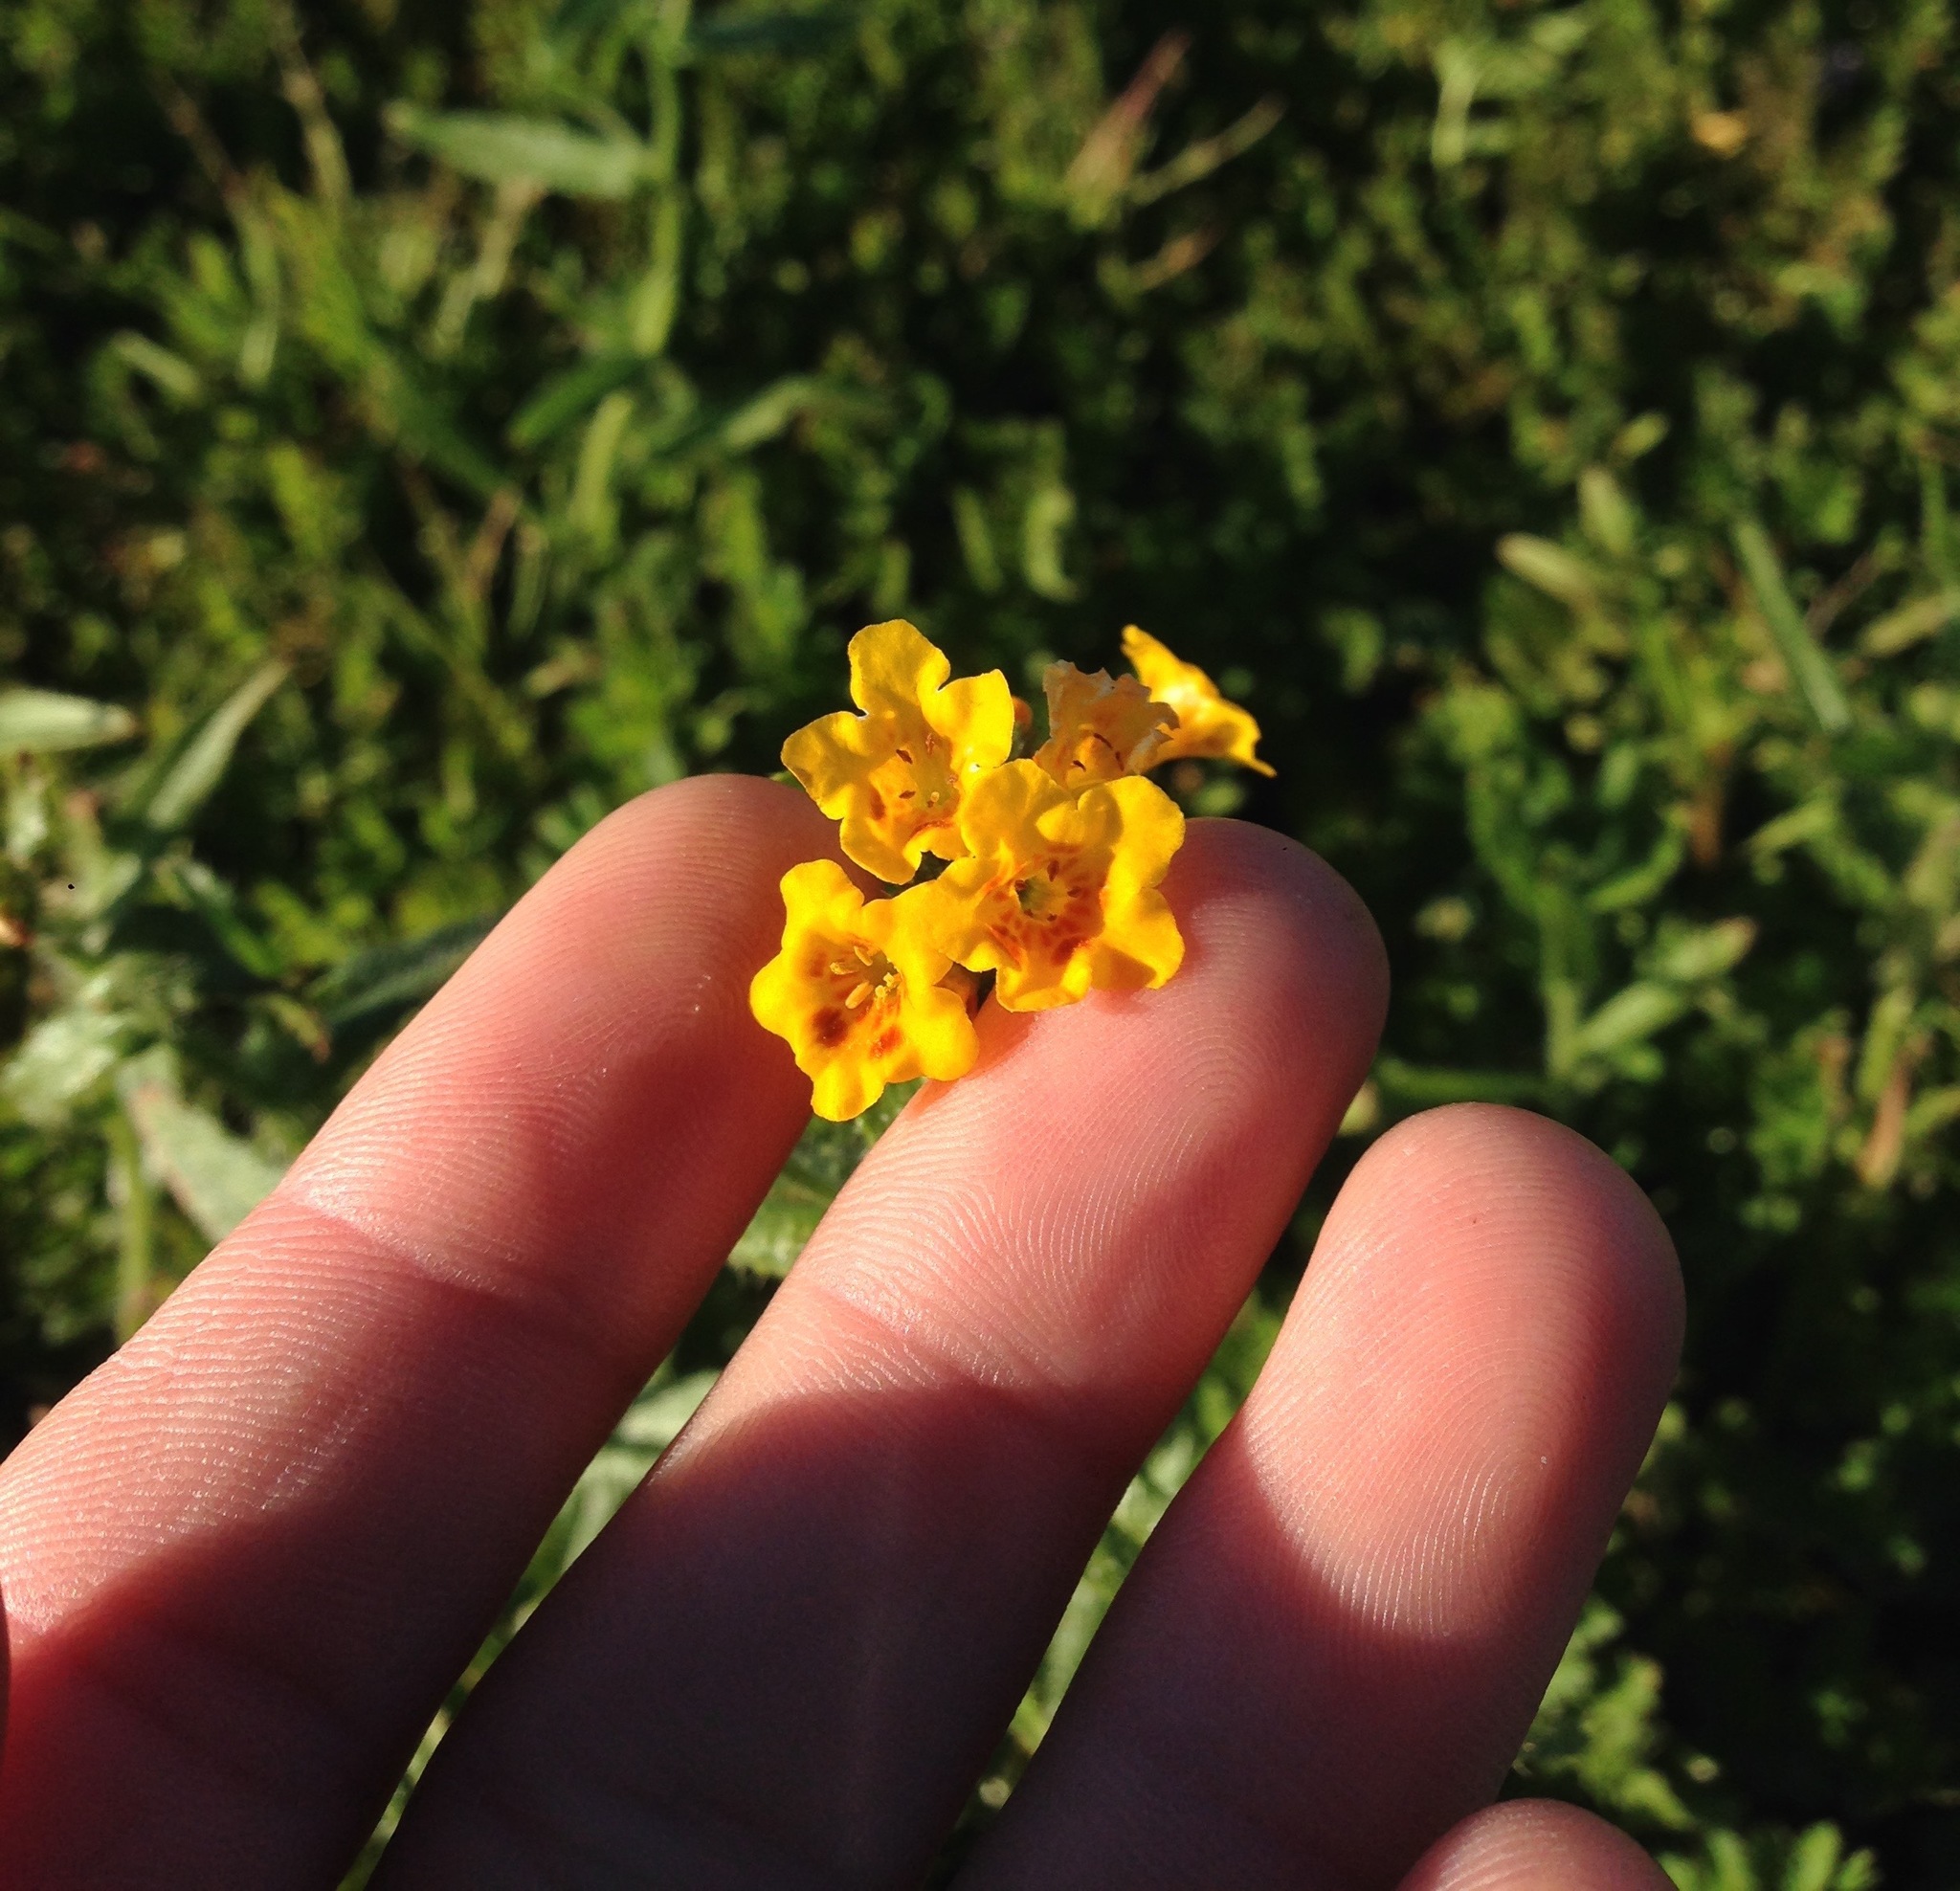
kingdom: Plantae
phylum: Tracheophyta
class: Magnoliopsida
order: Boraginales
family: Boraginaceae
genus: Amsinckia
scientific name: Amsinckia spectabilis
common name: Seaside fiddleneck
